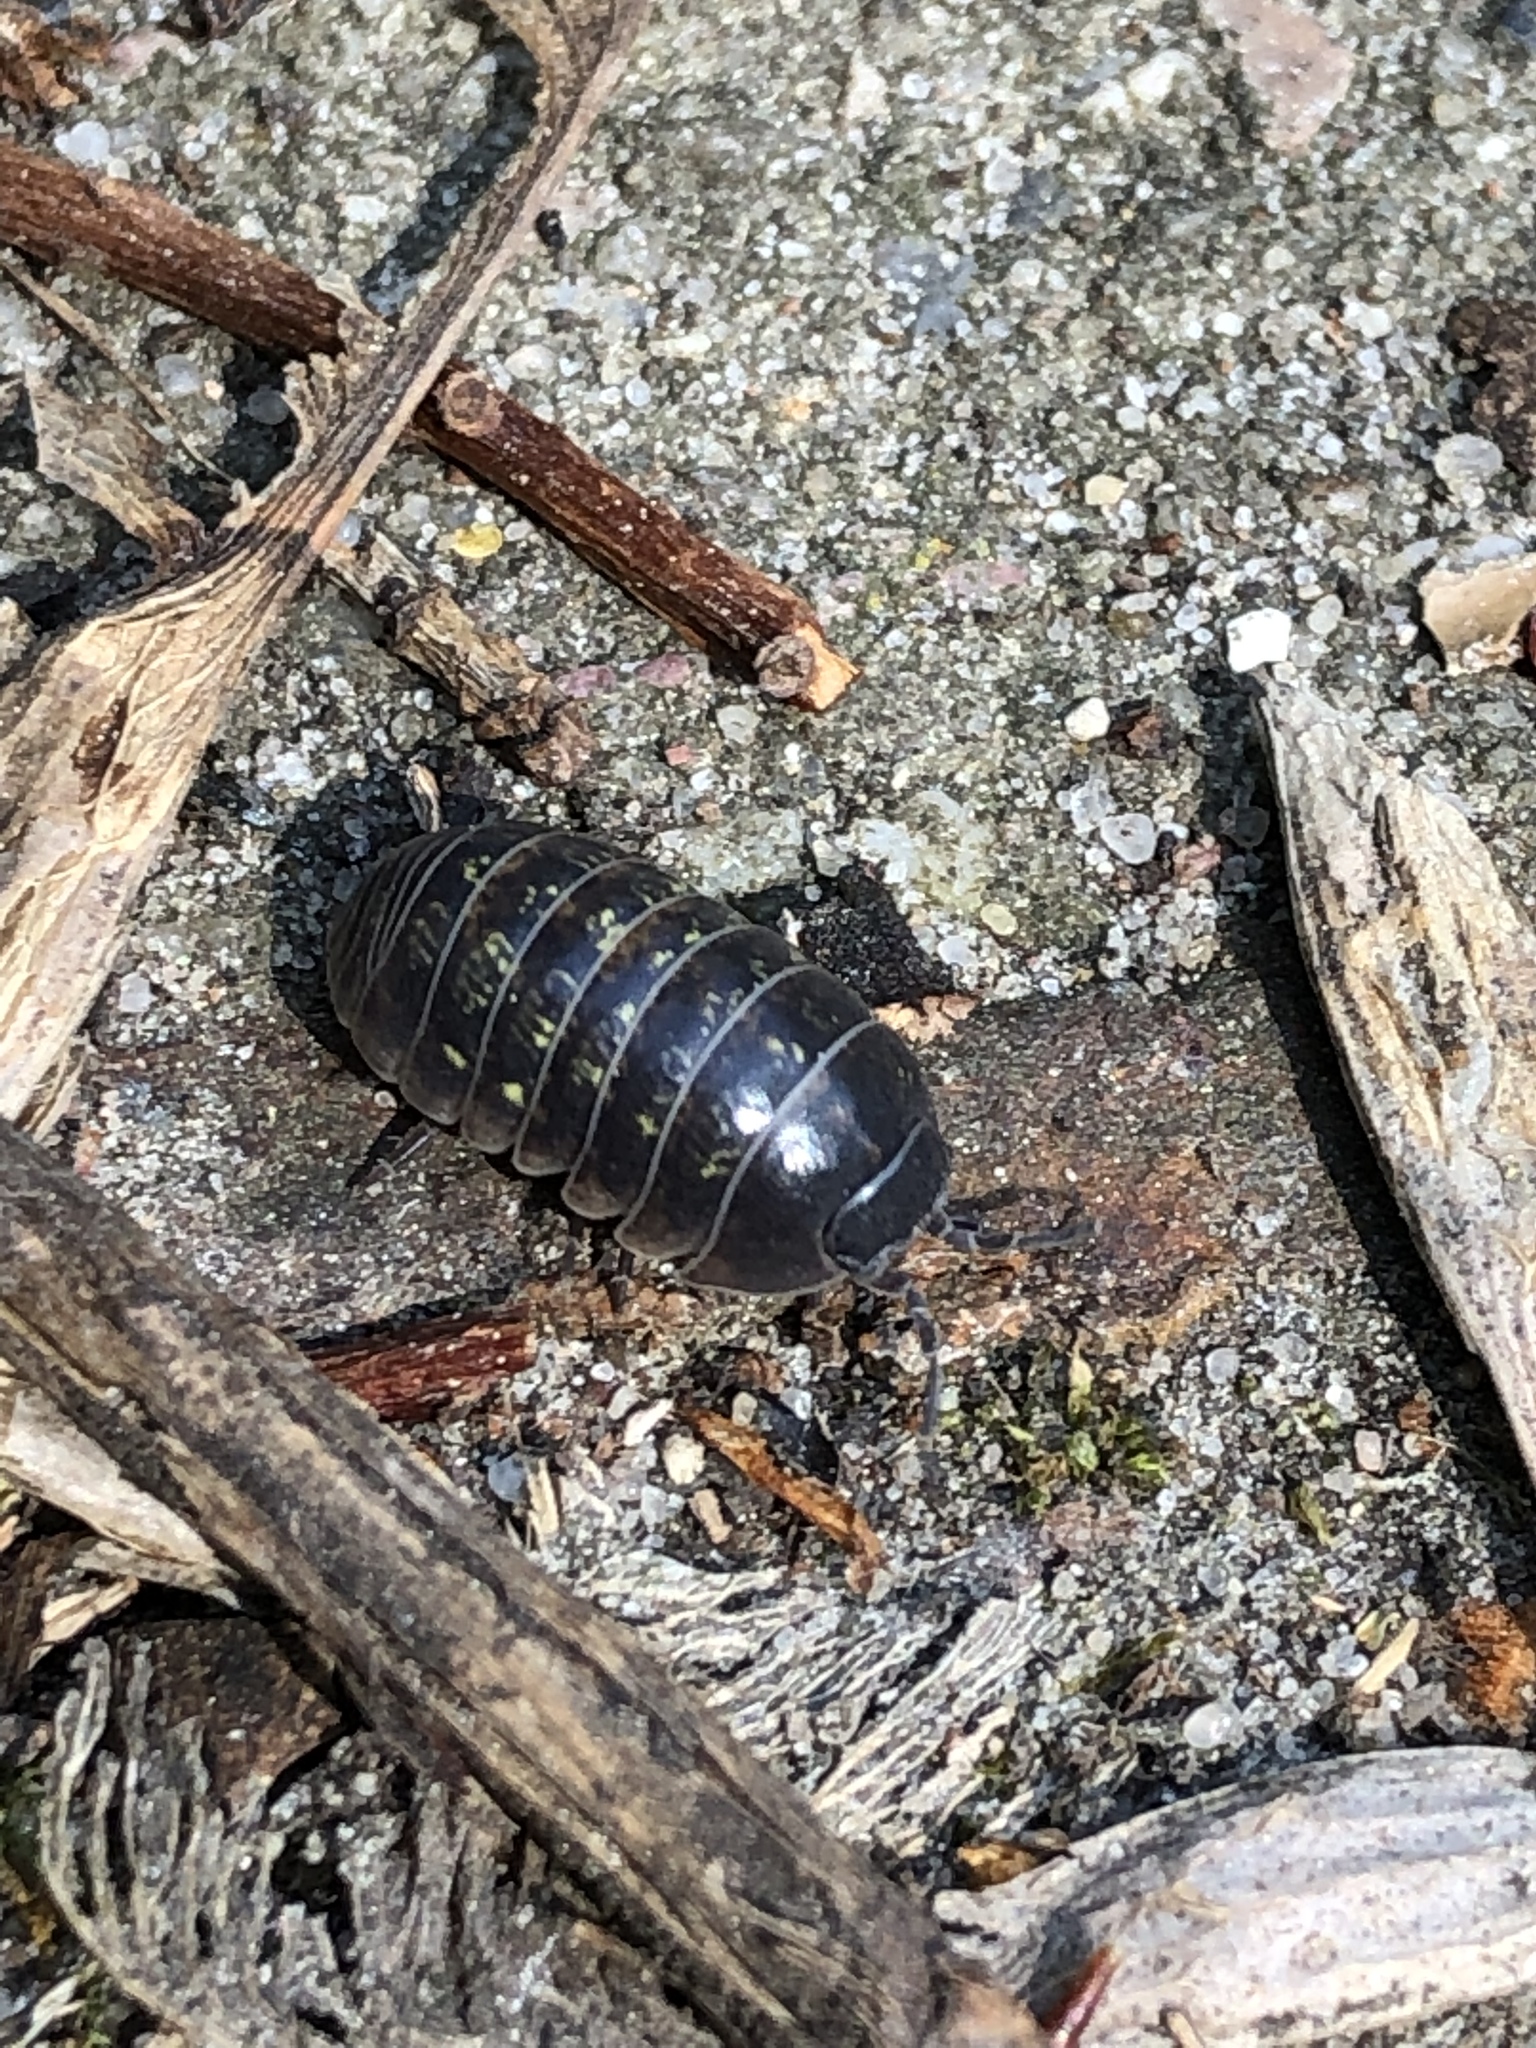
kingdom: Animalia
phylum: Arthropoda
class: Malacostraca
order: Isopoda
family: Armadillidiidae
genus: Armadillidium
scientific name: Armadillidium vulgare
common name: Common pill woodlouse
